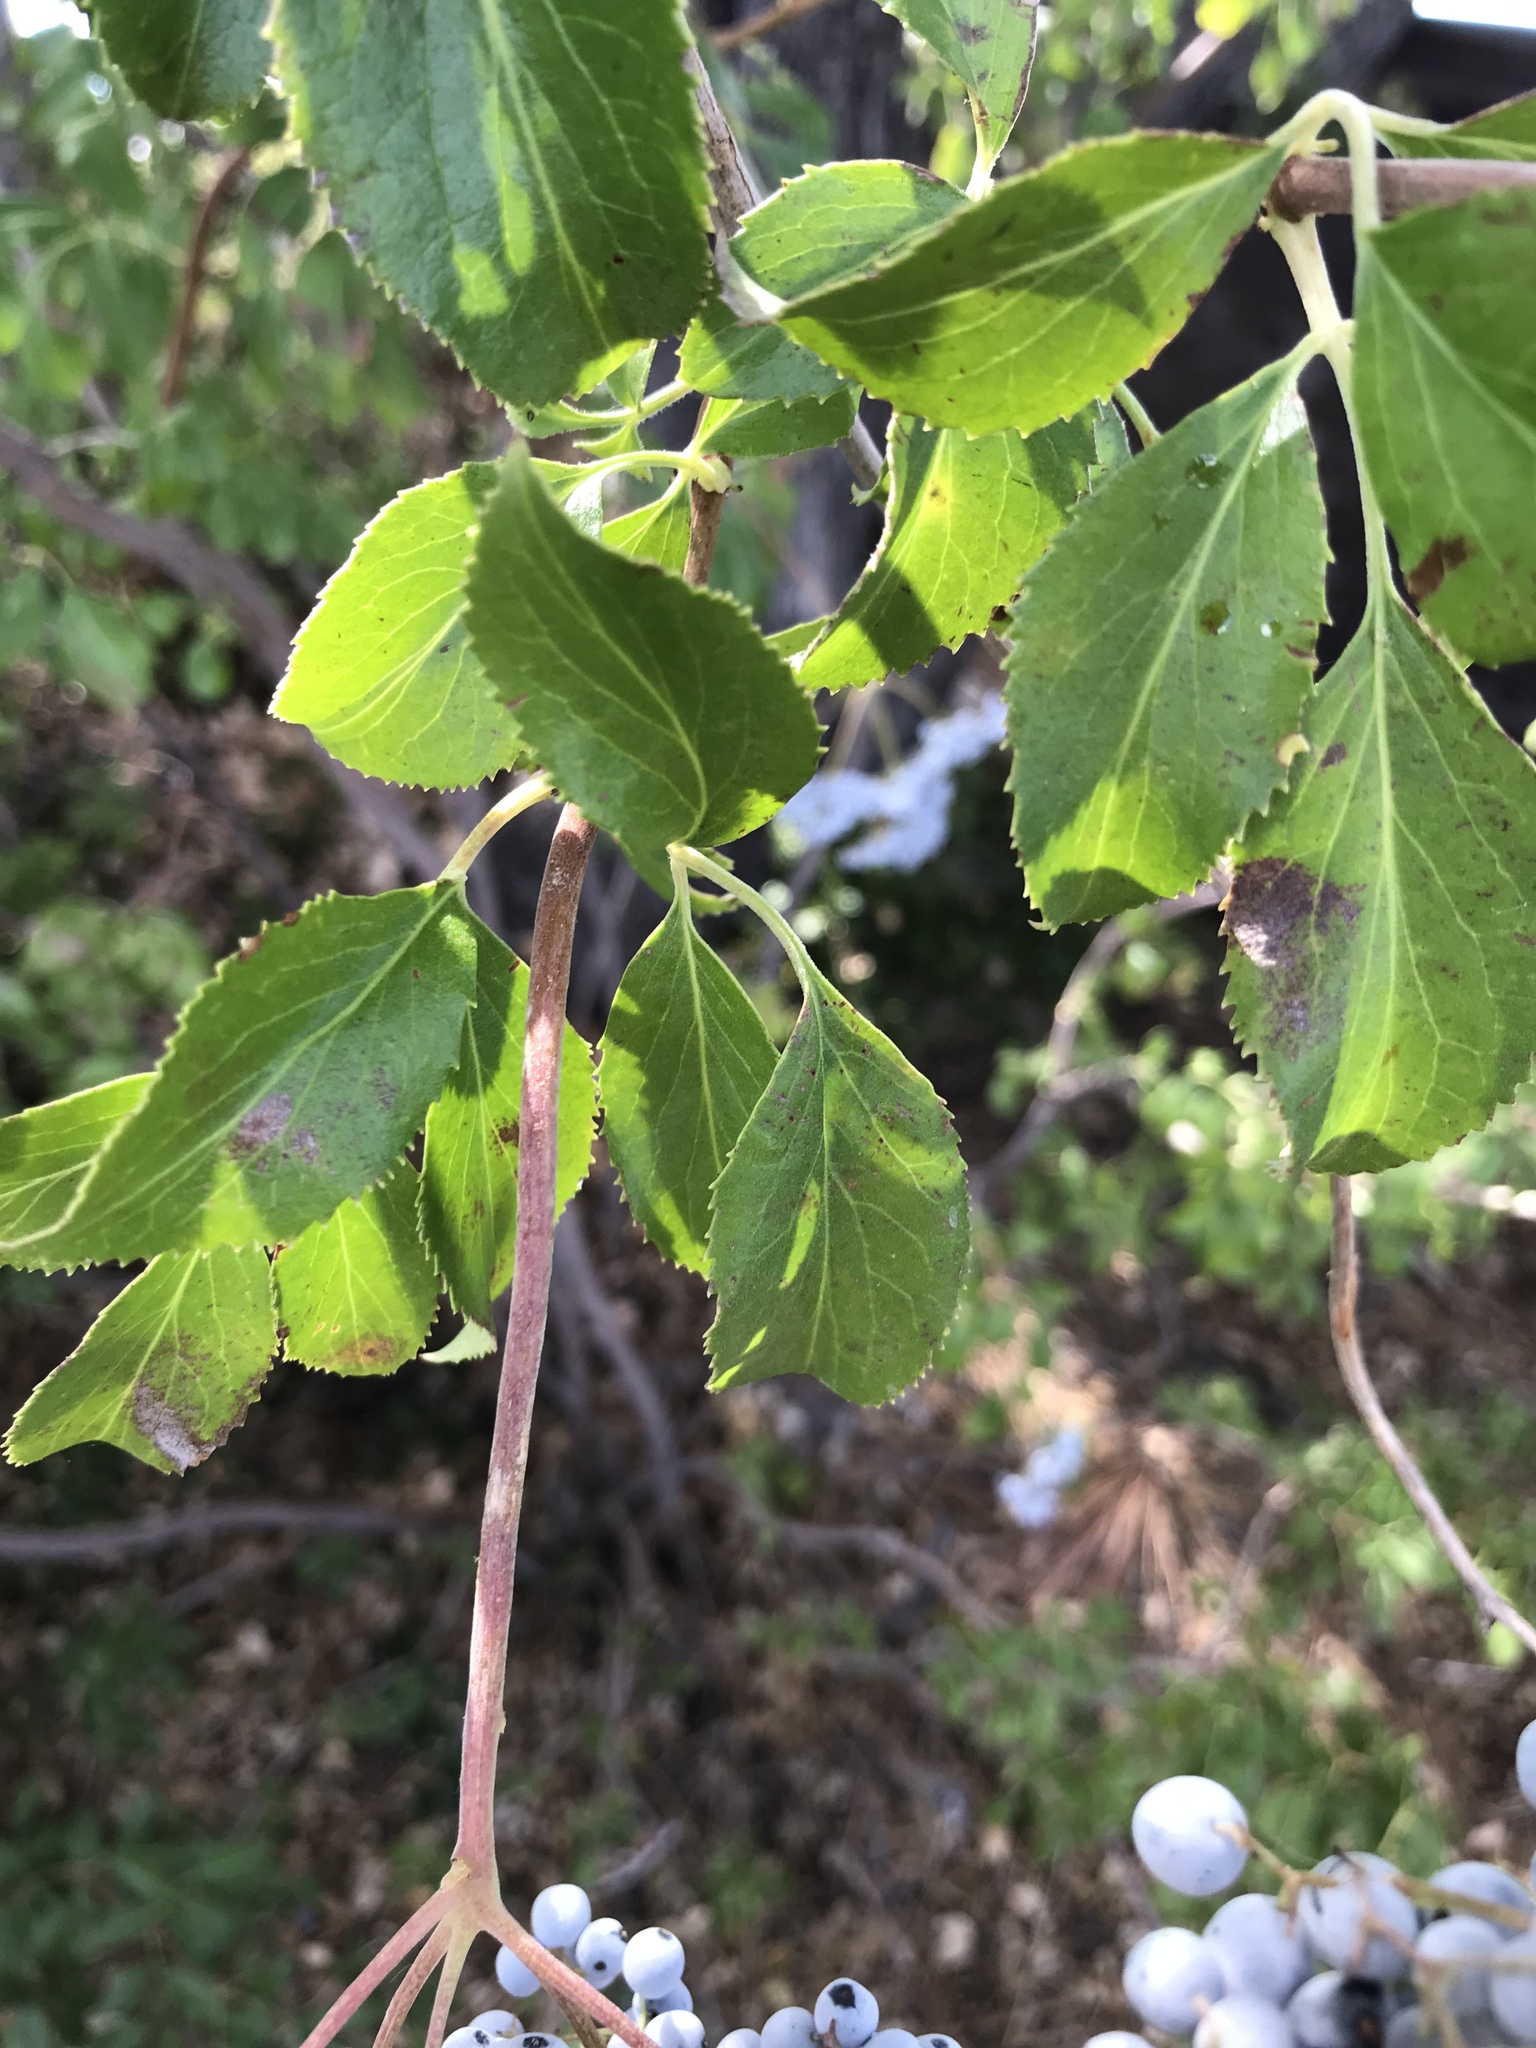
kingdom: Plantae
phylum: Tracheophyta
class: Magnoliopsida
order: Dipsacales
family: Viburnaceae
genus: Sambucus
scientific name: Sambucus cerulea
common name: Blue elder
